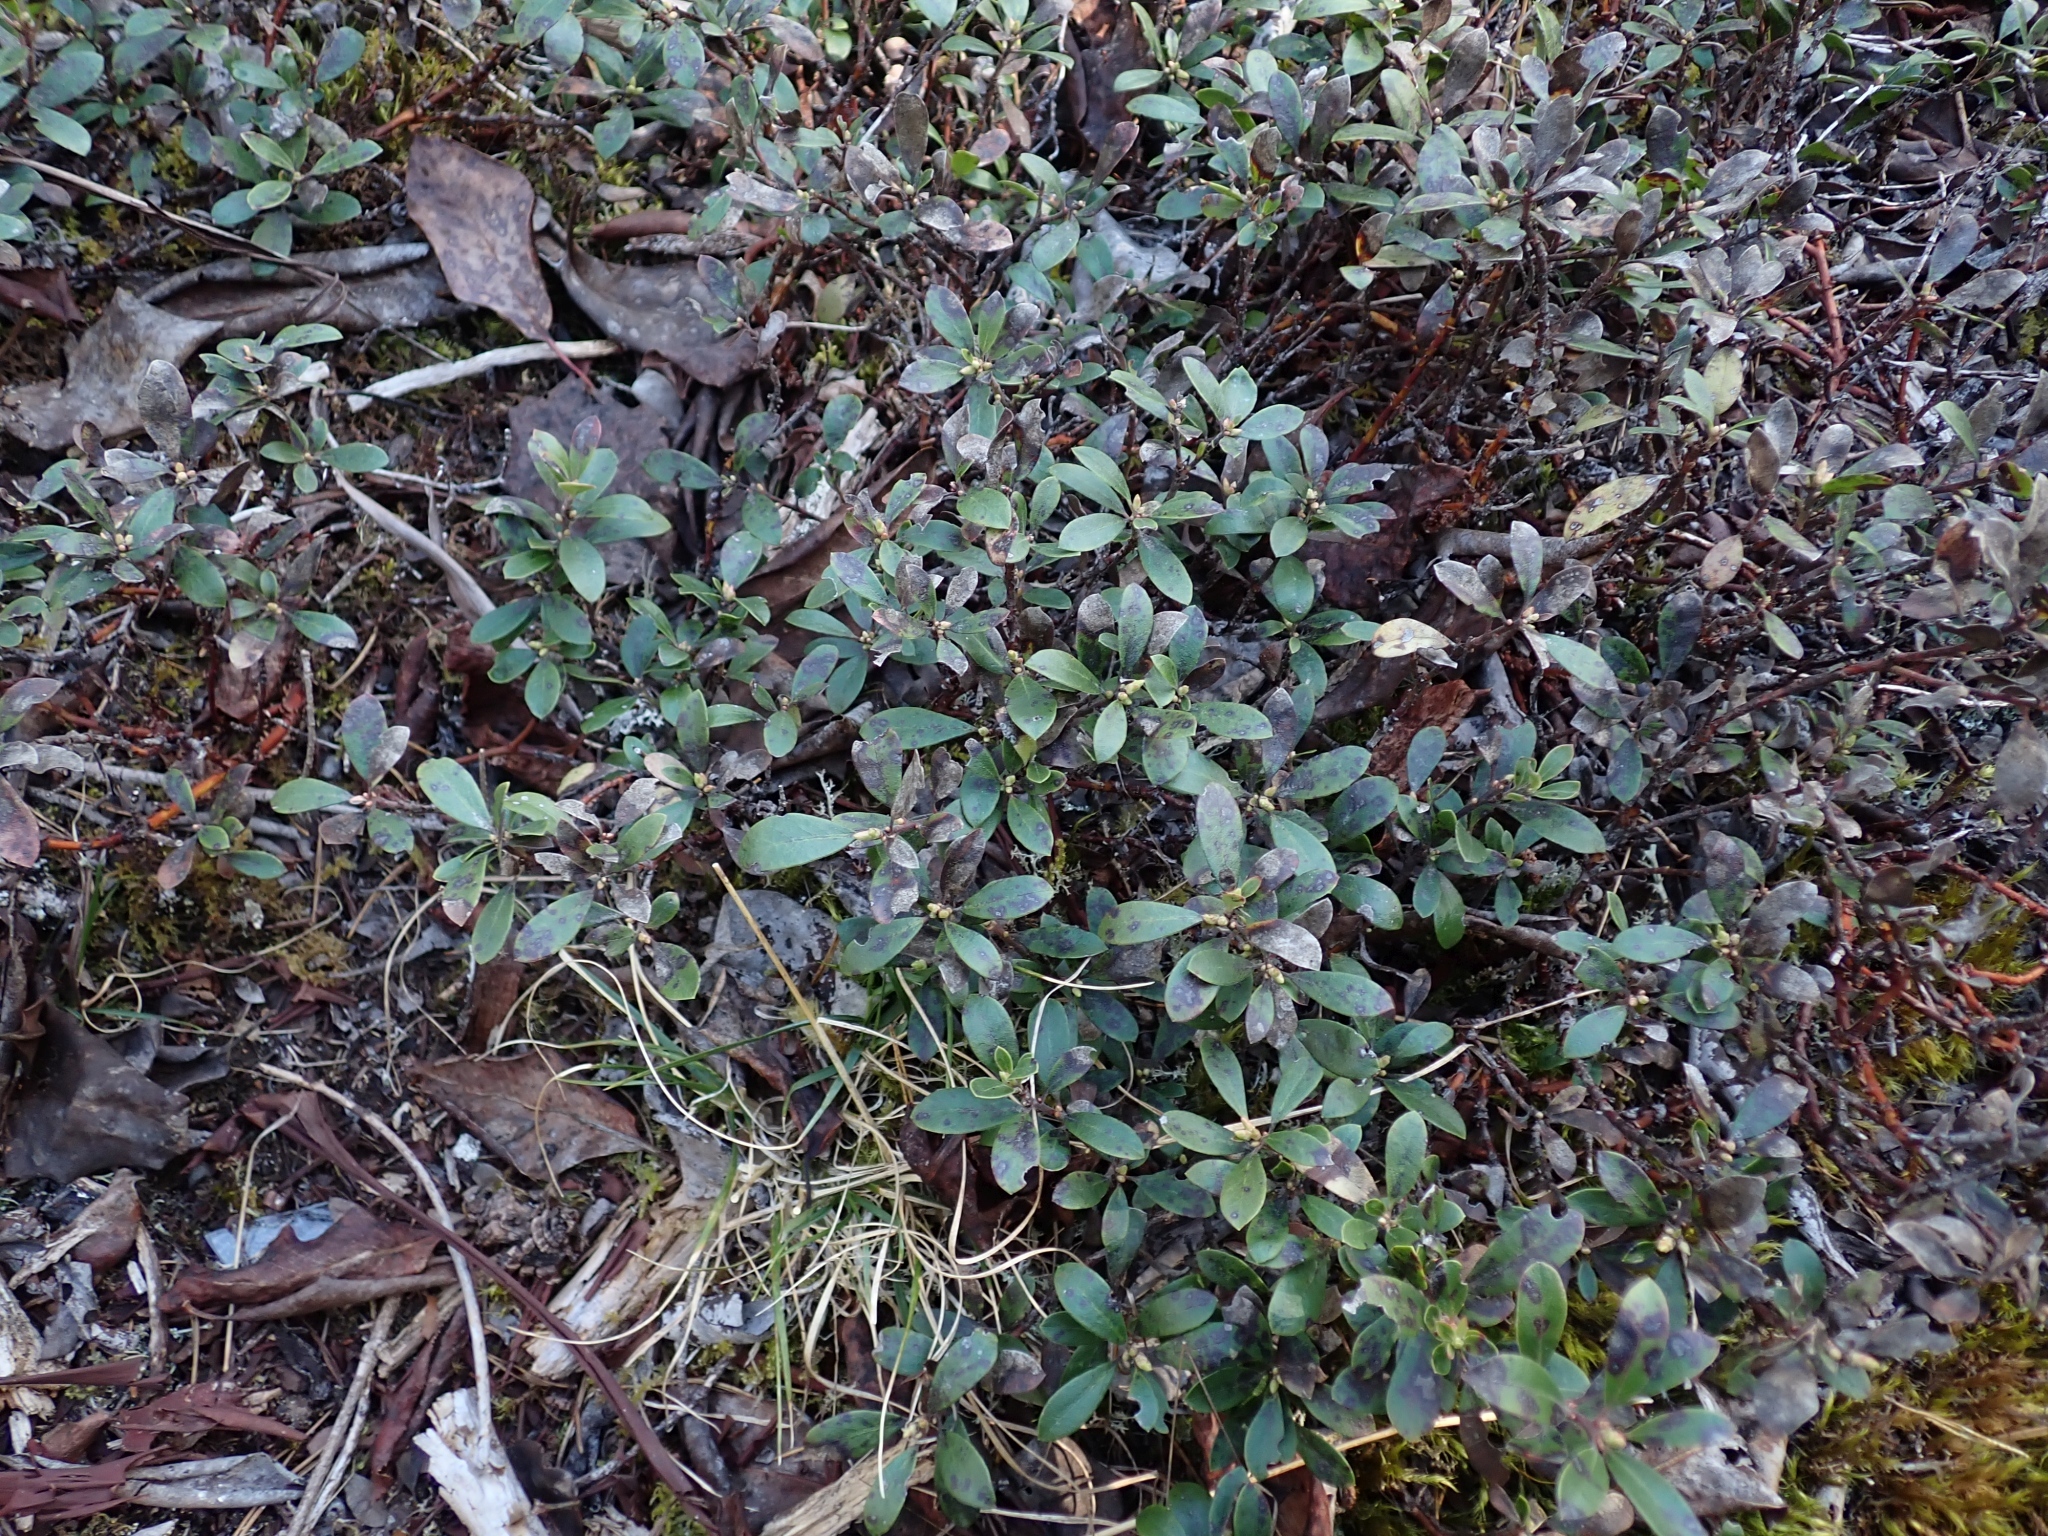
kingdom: Plantae
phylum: Tracheophyta
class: Magnoliopsida
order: Ericales
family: Ericaceae
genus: Arctostaphylos
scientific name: Arctostaphylos uva-ursi
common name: Bearberry
